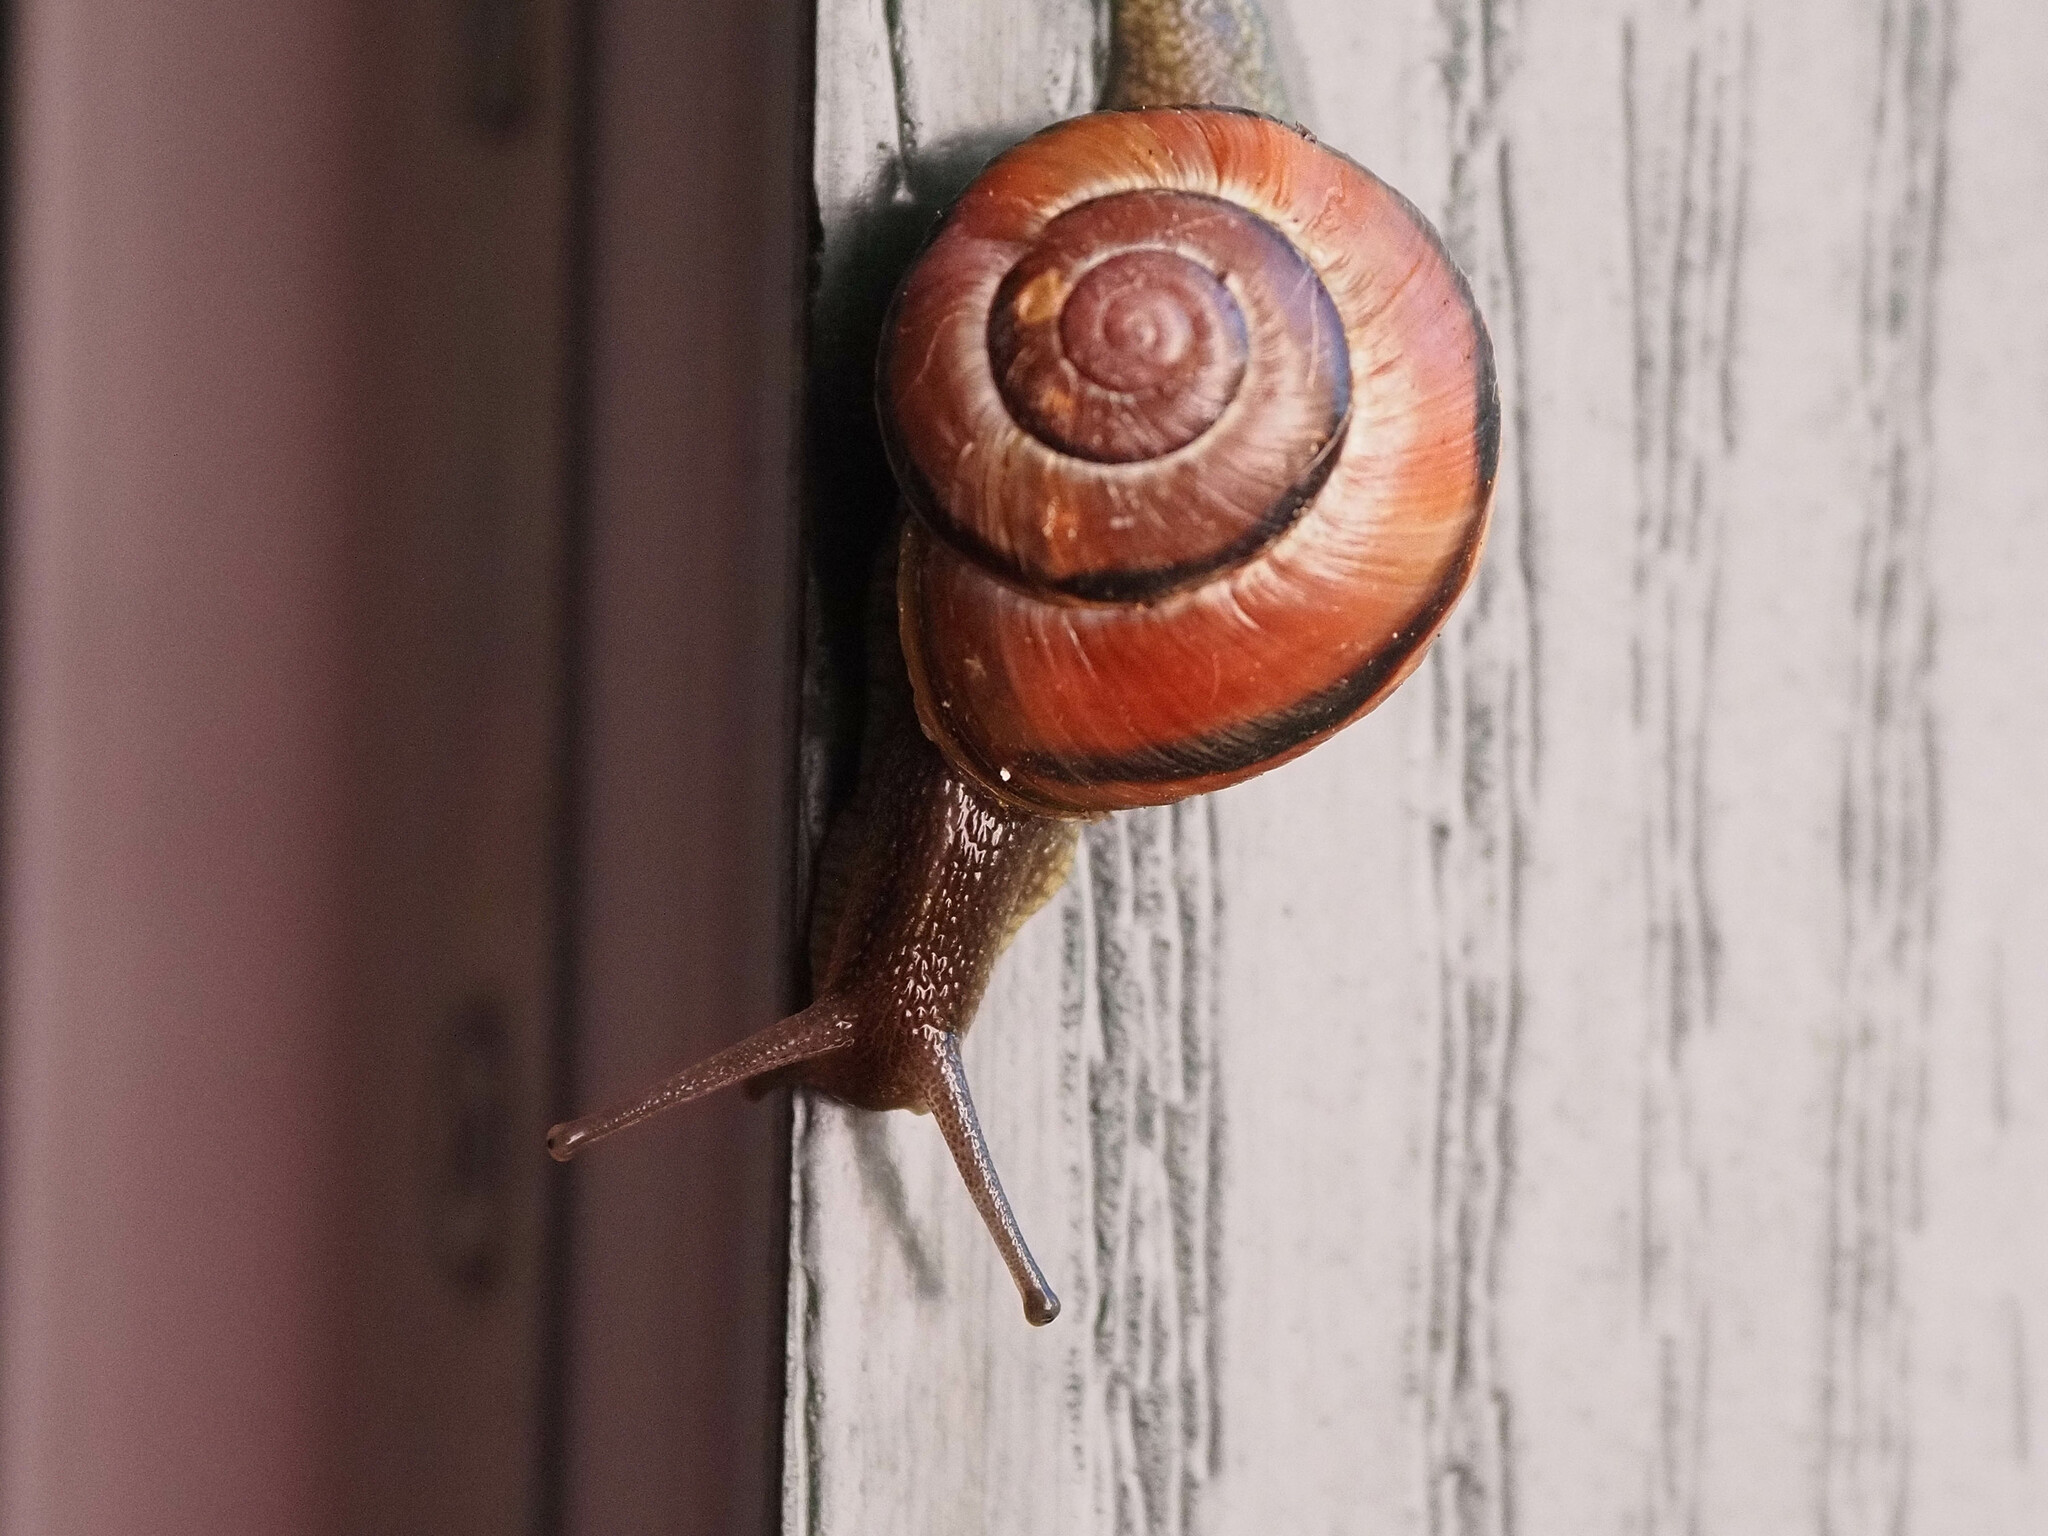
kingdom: Animalia
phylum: Mollusca
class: Gastropoda
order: Stylommatophora
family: Helicidae
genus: Cepaea
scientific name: Cepaea nemoralis
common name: Grovesnail
